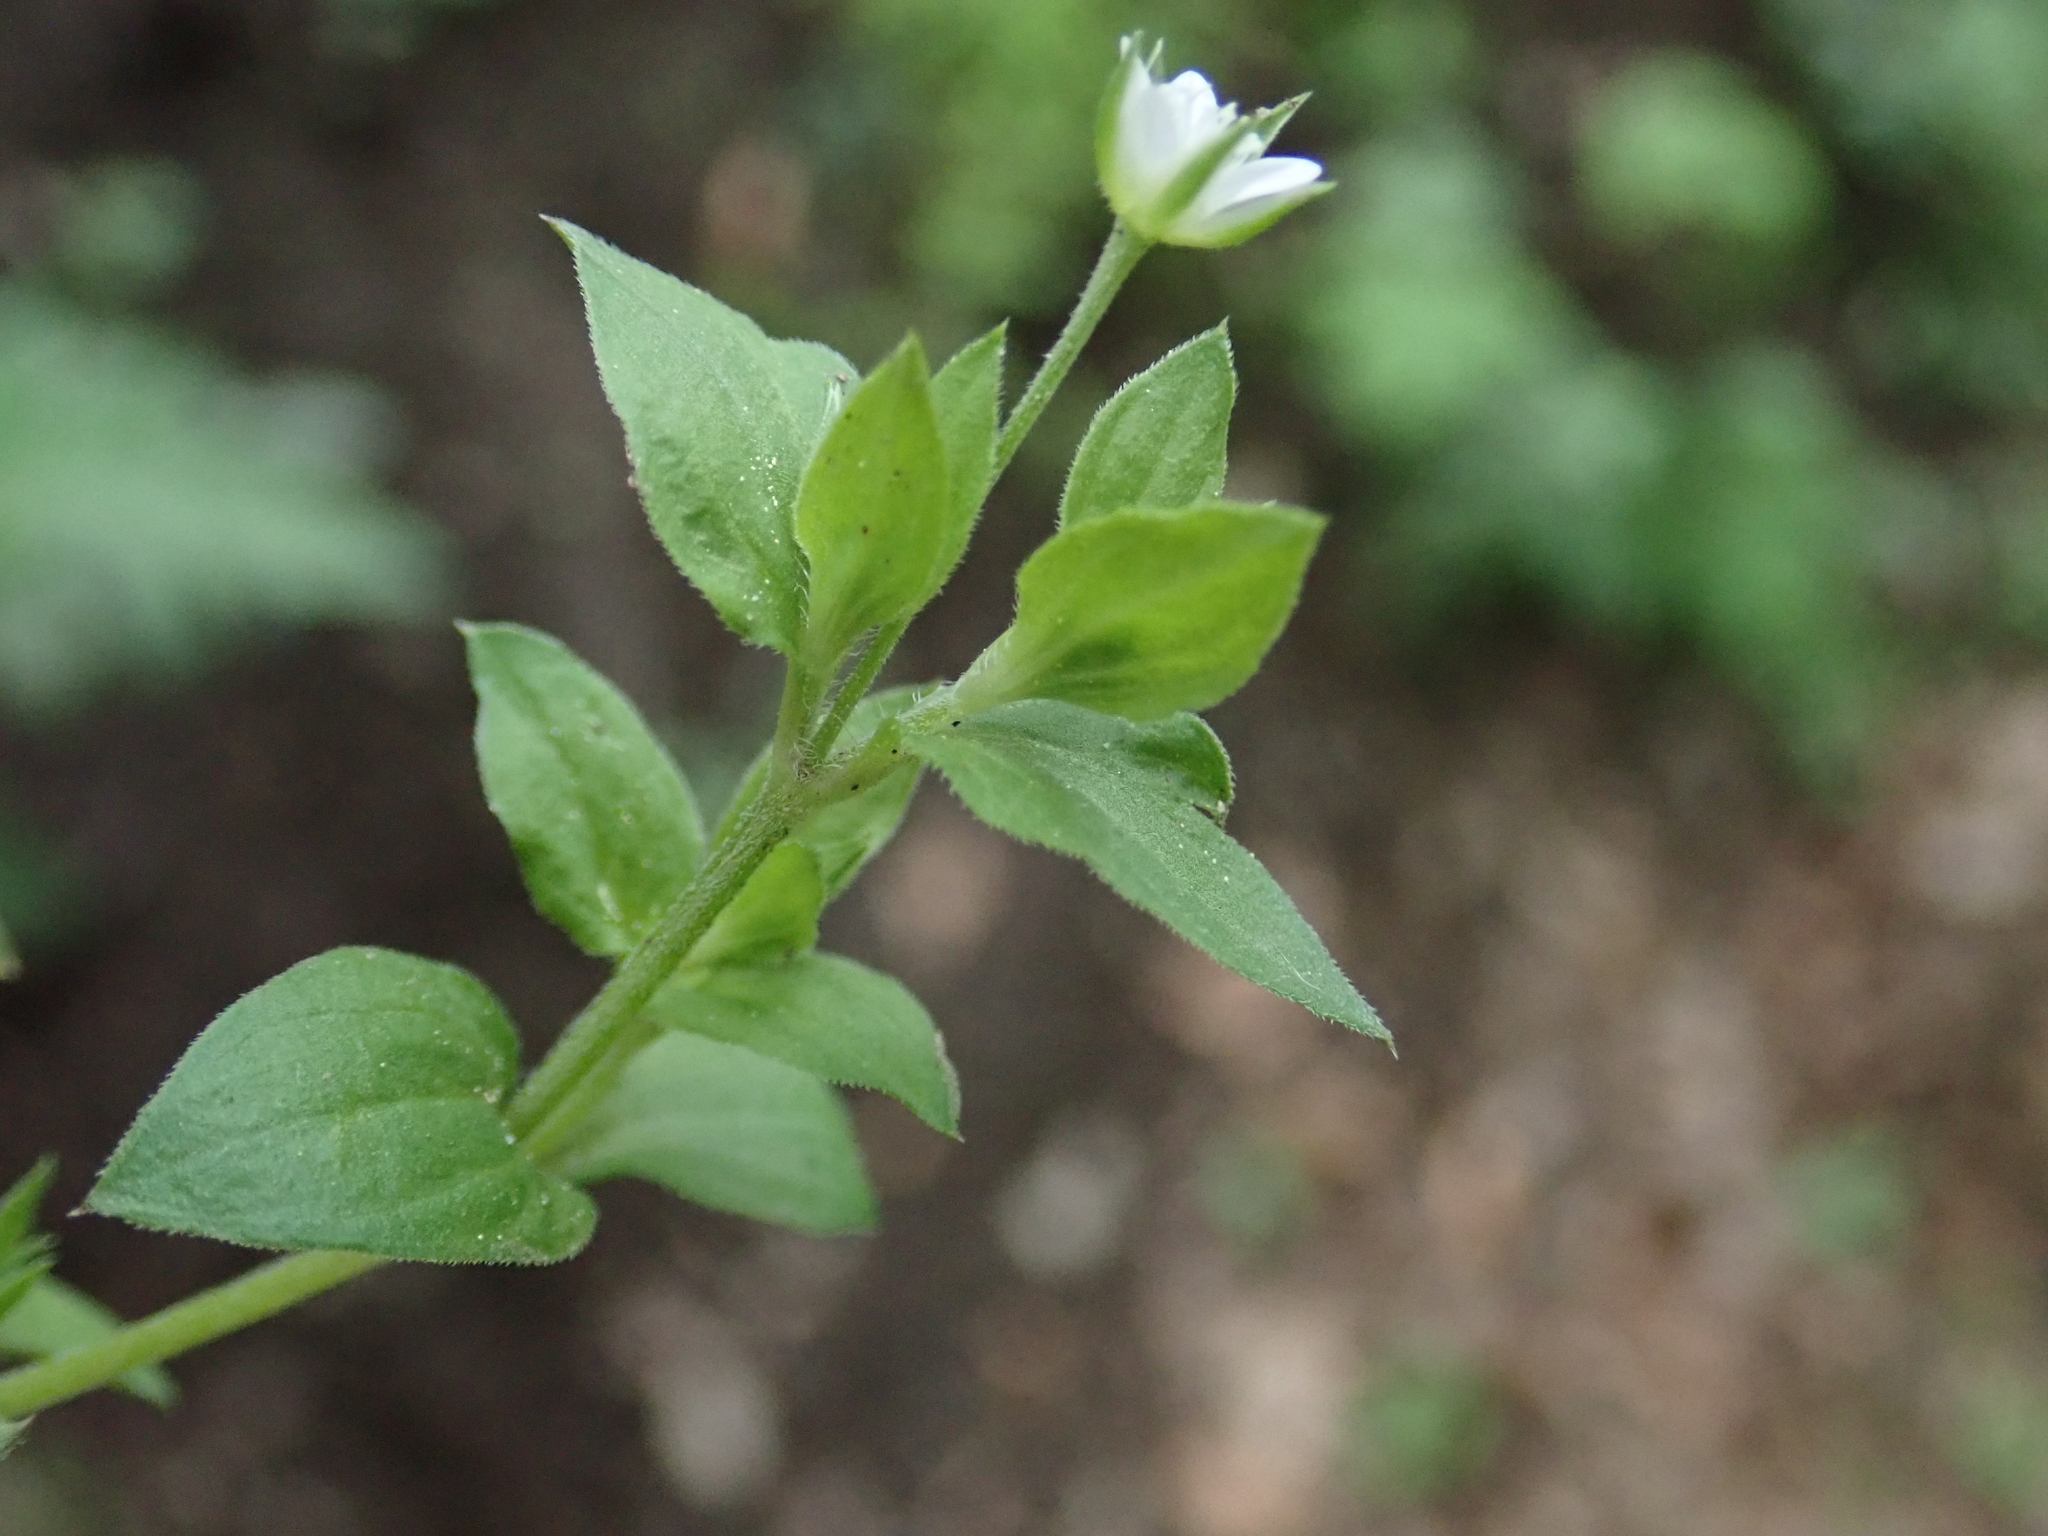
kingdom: Plantae
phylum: Tracheophyta
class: Magnoliopsida
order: Caryophyllales
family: Caryophyllaceae
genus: Moehringia
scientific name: Moehringia trinervia
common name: Three-nerved sandwort
